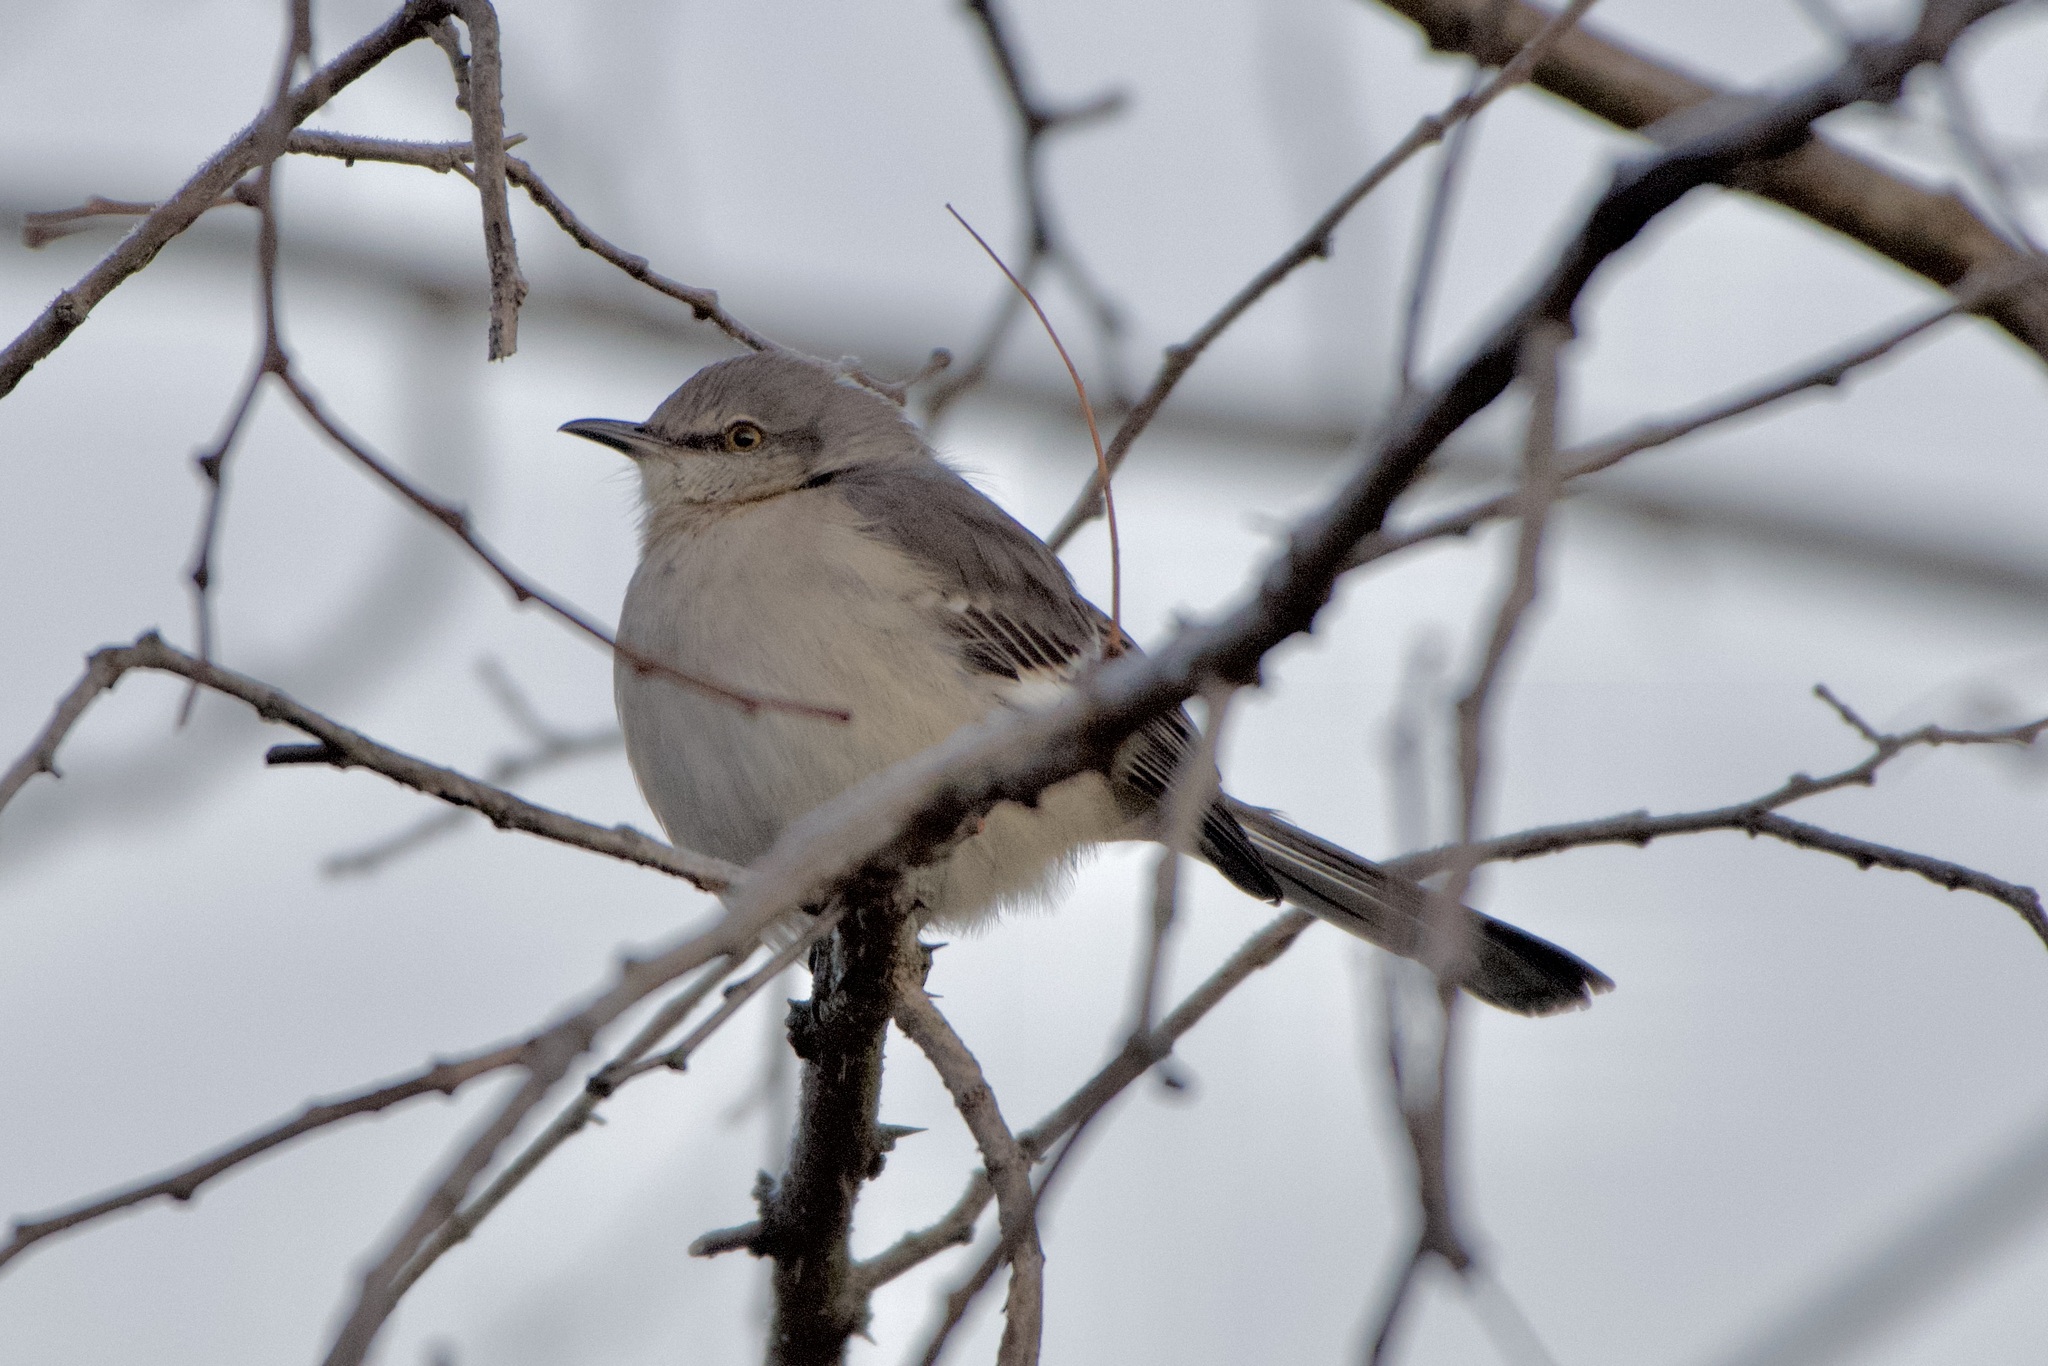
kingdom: Animalia
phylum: Chordata
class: Aves
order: Passeriformes
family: Mimidae
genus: Mimus
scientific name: Mimus polyglottos
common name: Northern mockingbird
